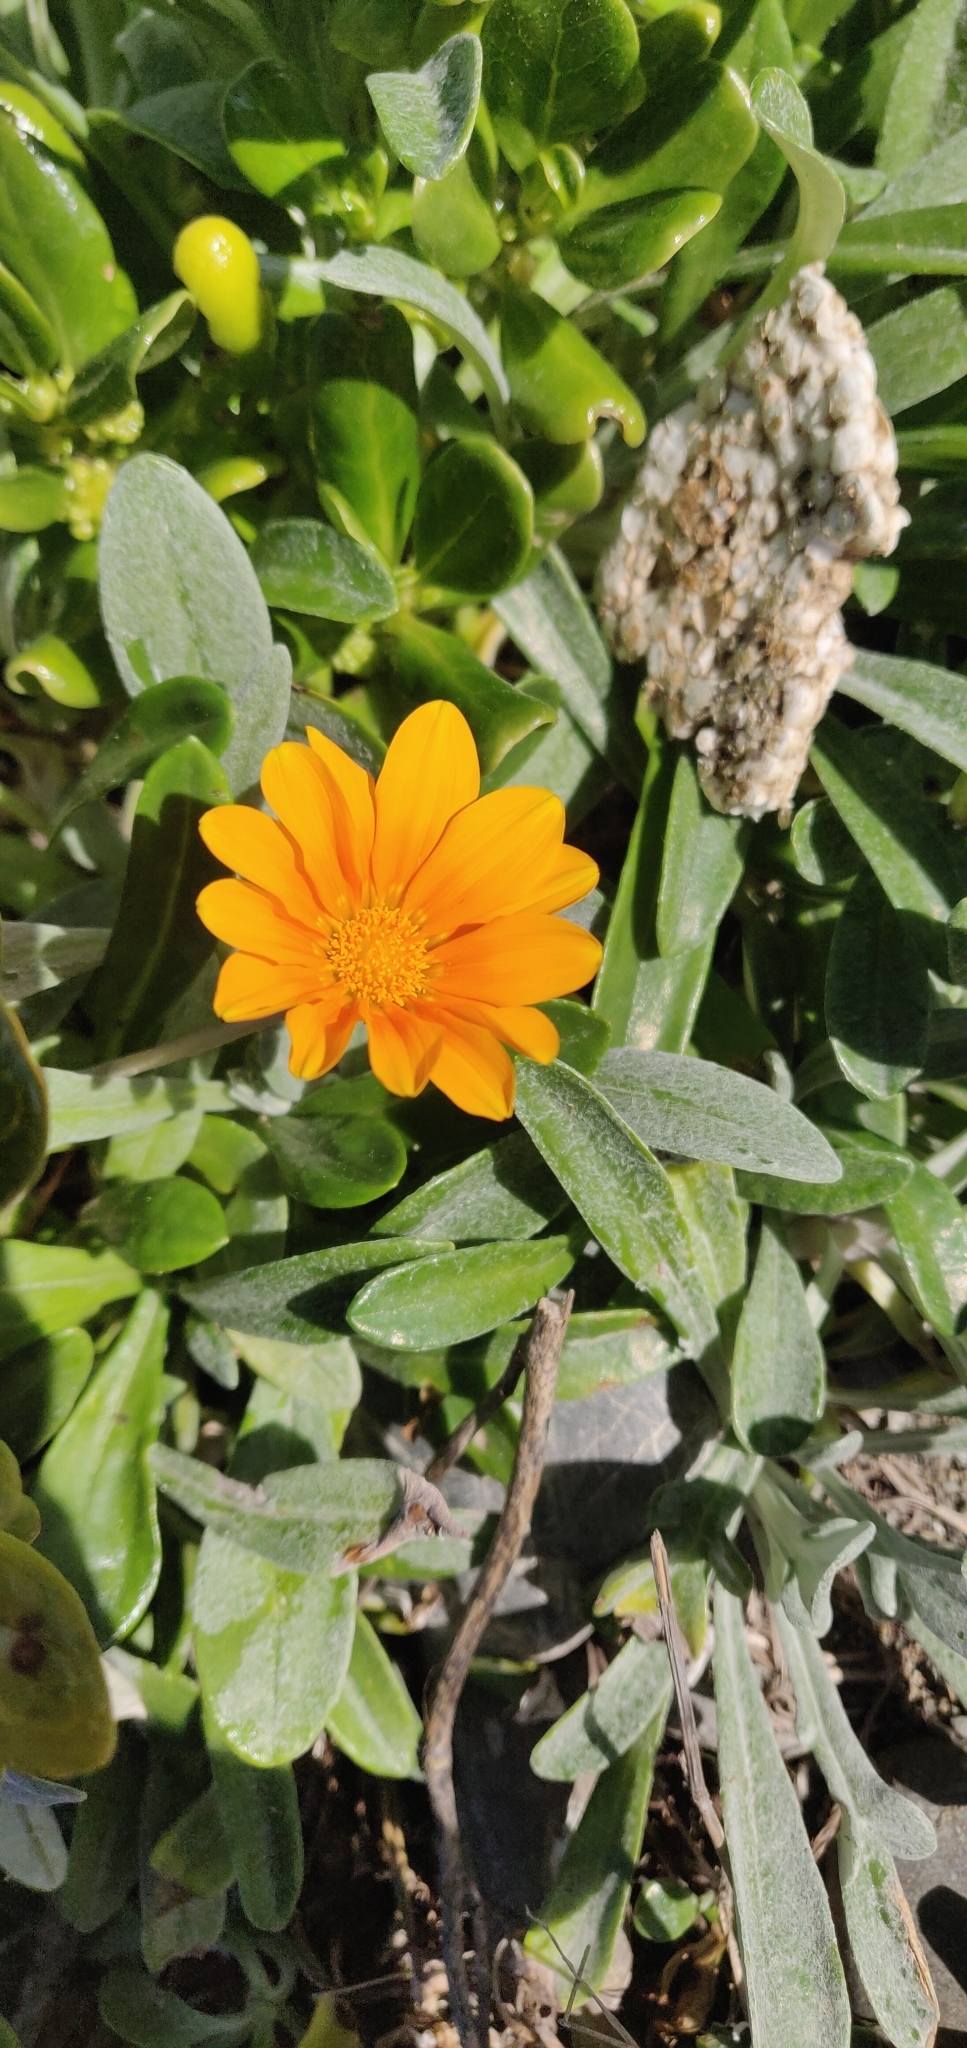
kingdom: Plantae
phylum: Tracheophyta
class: Magnoliopsida
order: Asterales
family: Asteraceae
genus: Gazania
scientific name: Gazania splendens
